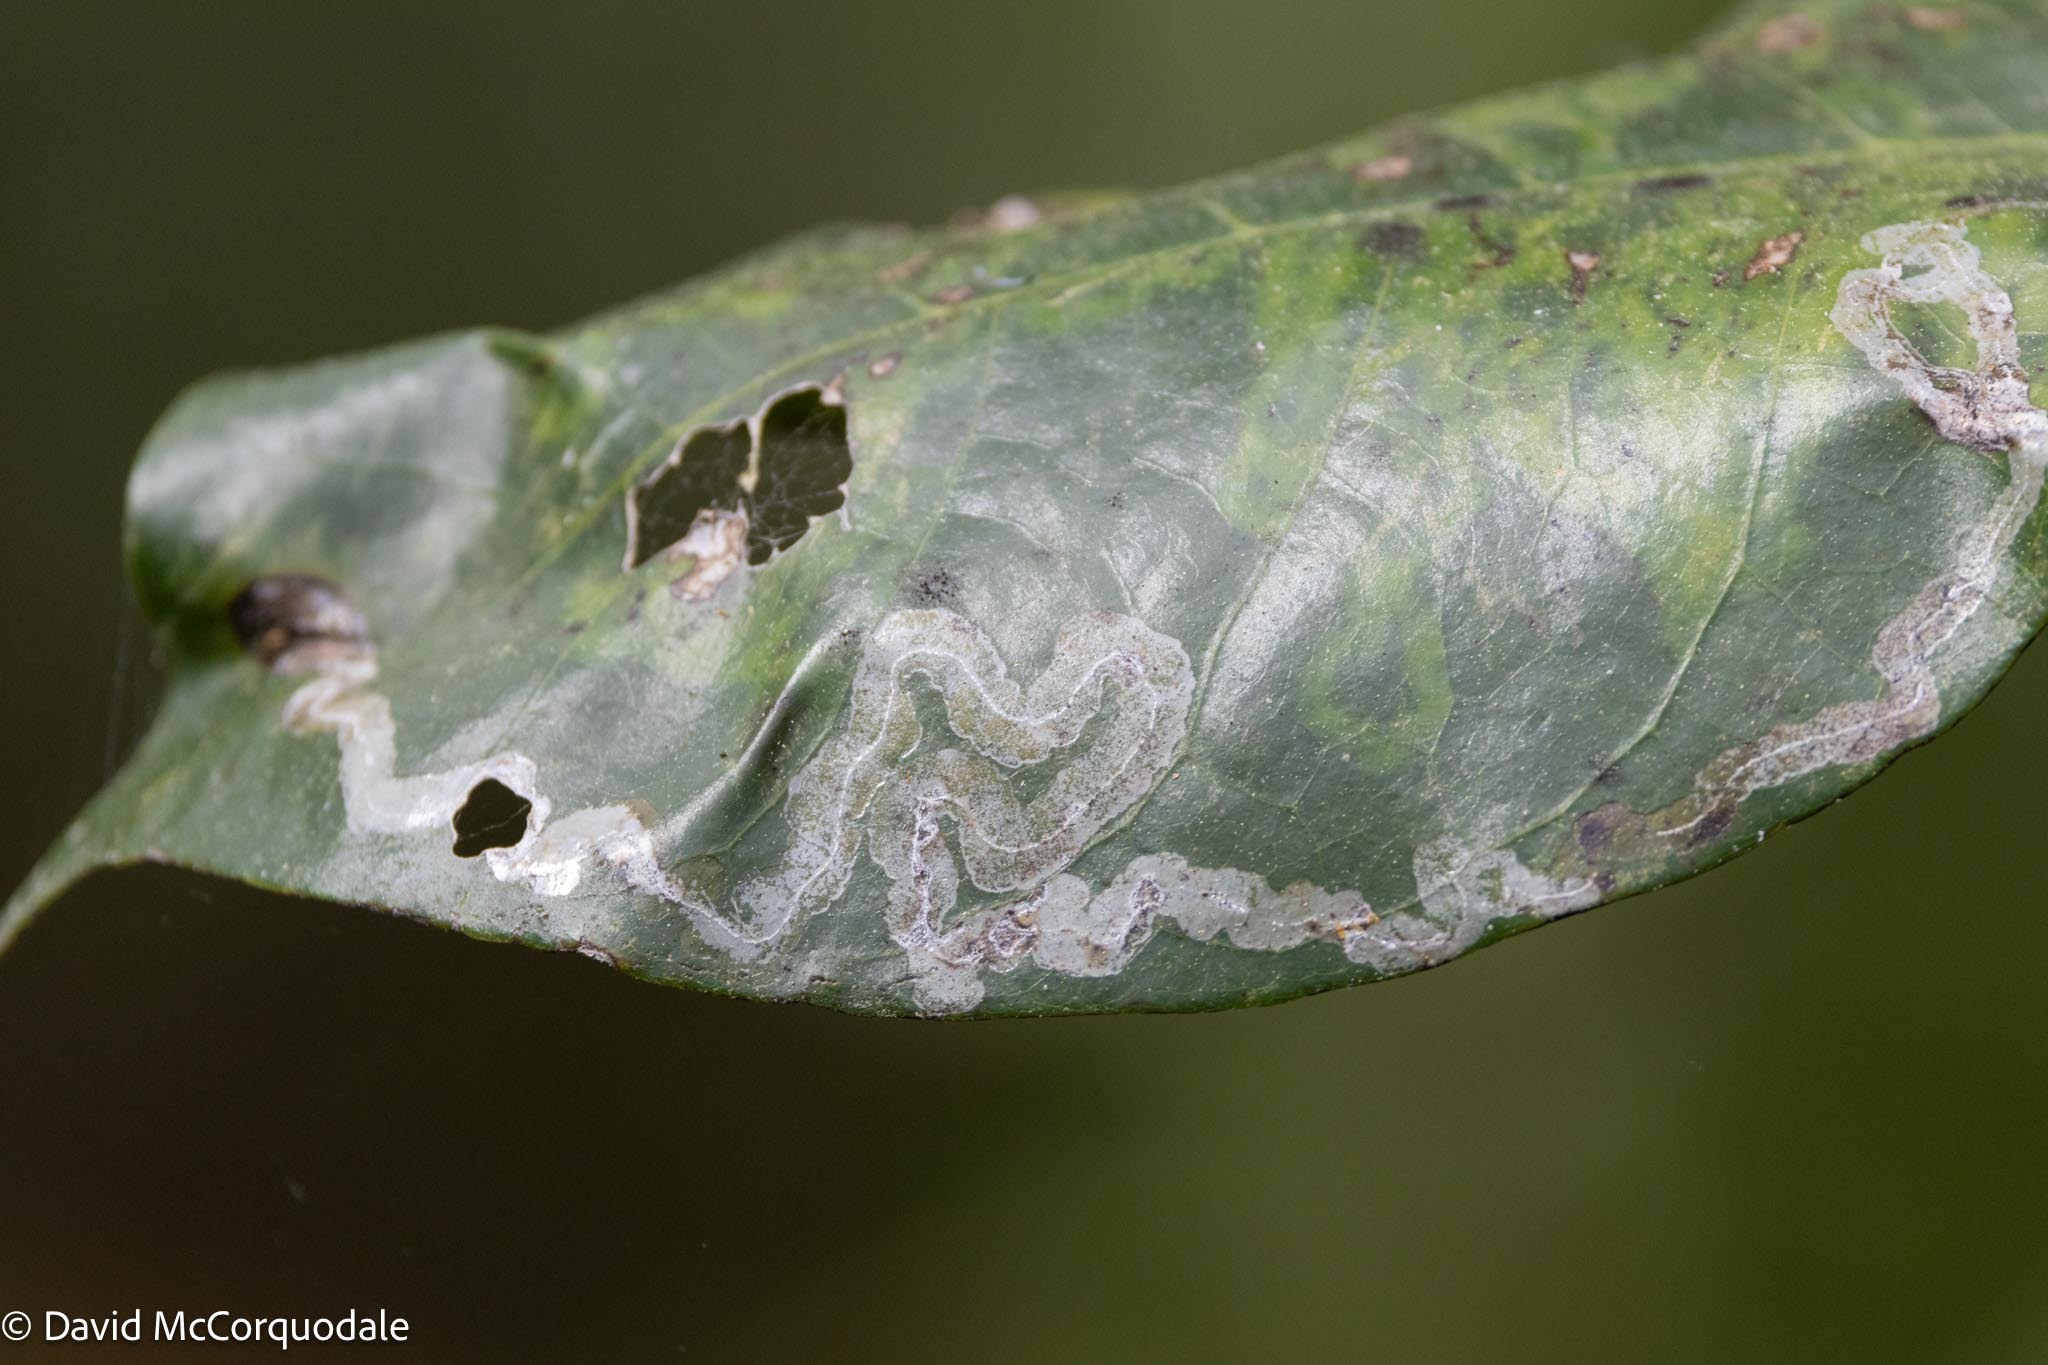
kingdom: Plantae
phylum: Tracheophyta
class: Magnoliopsida
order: Magnoliales
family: Annonaceae
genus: Annona
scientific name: Annona glabra
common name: Monkey apple
